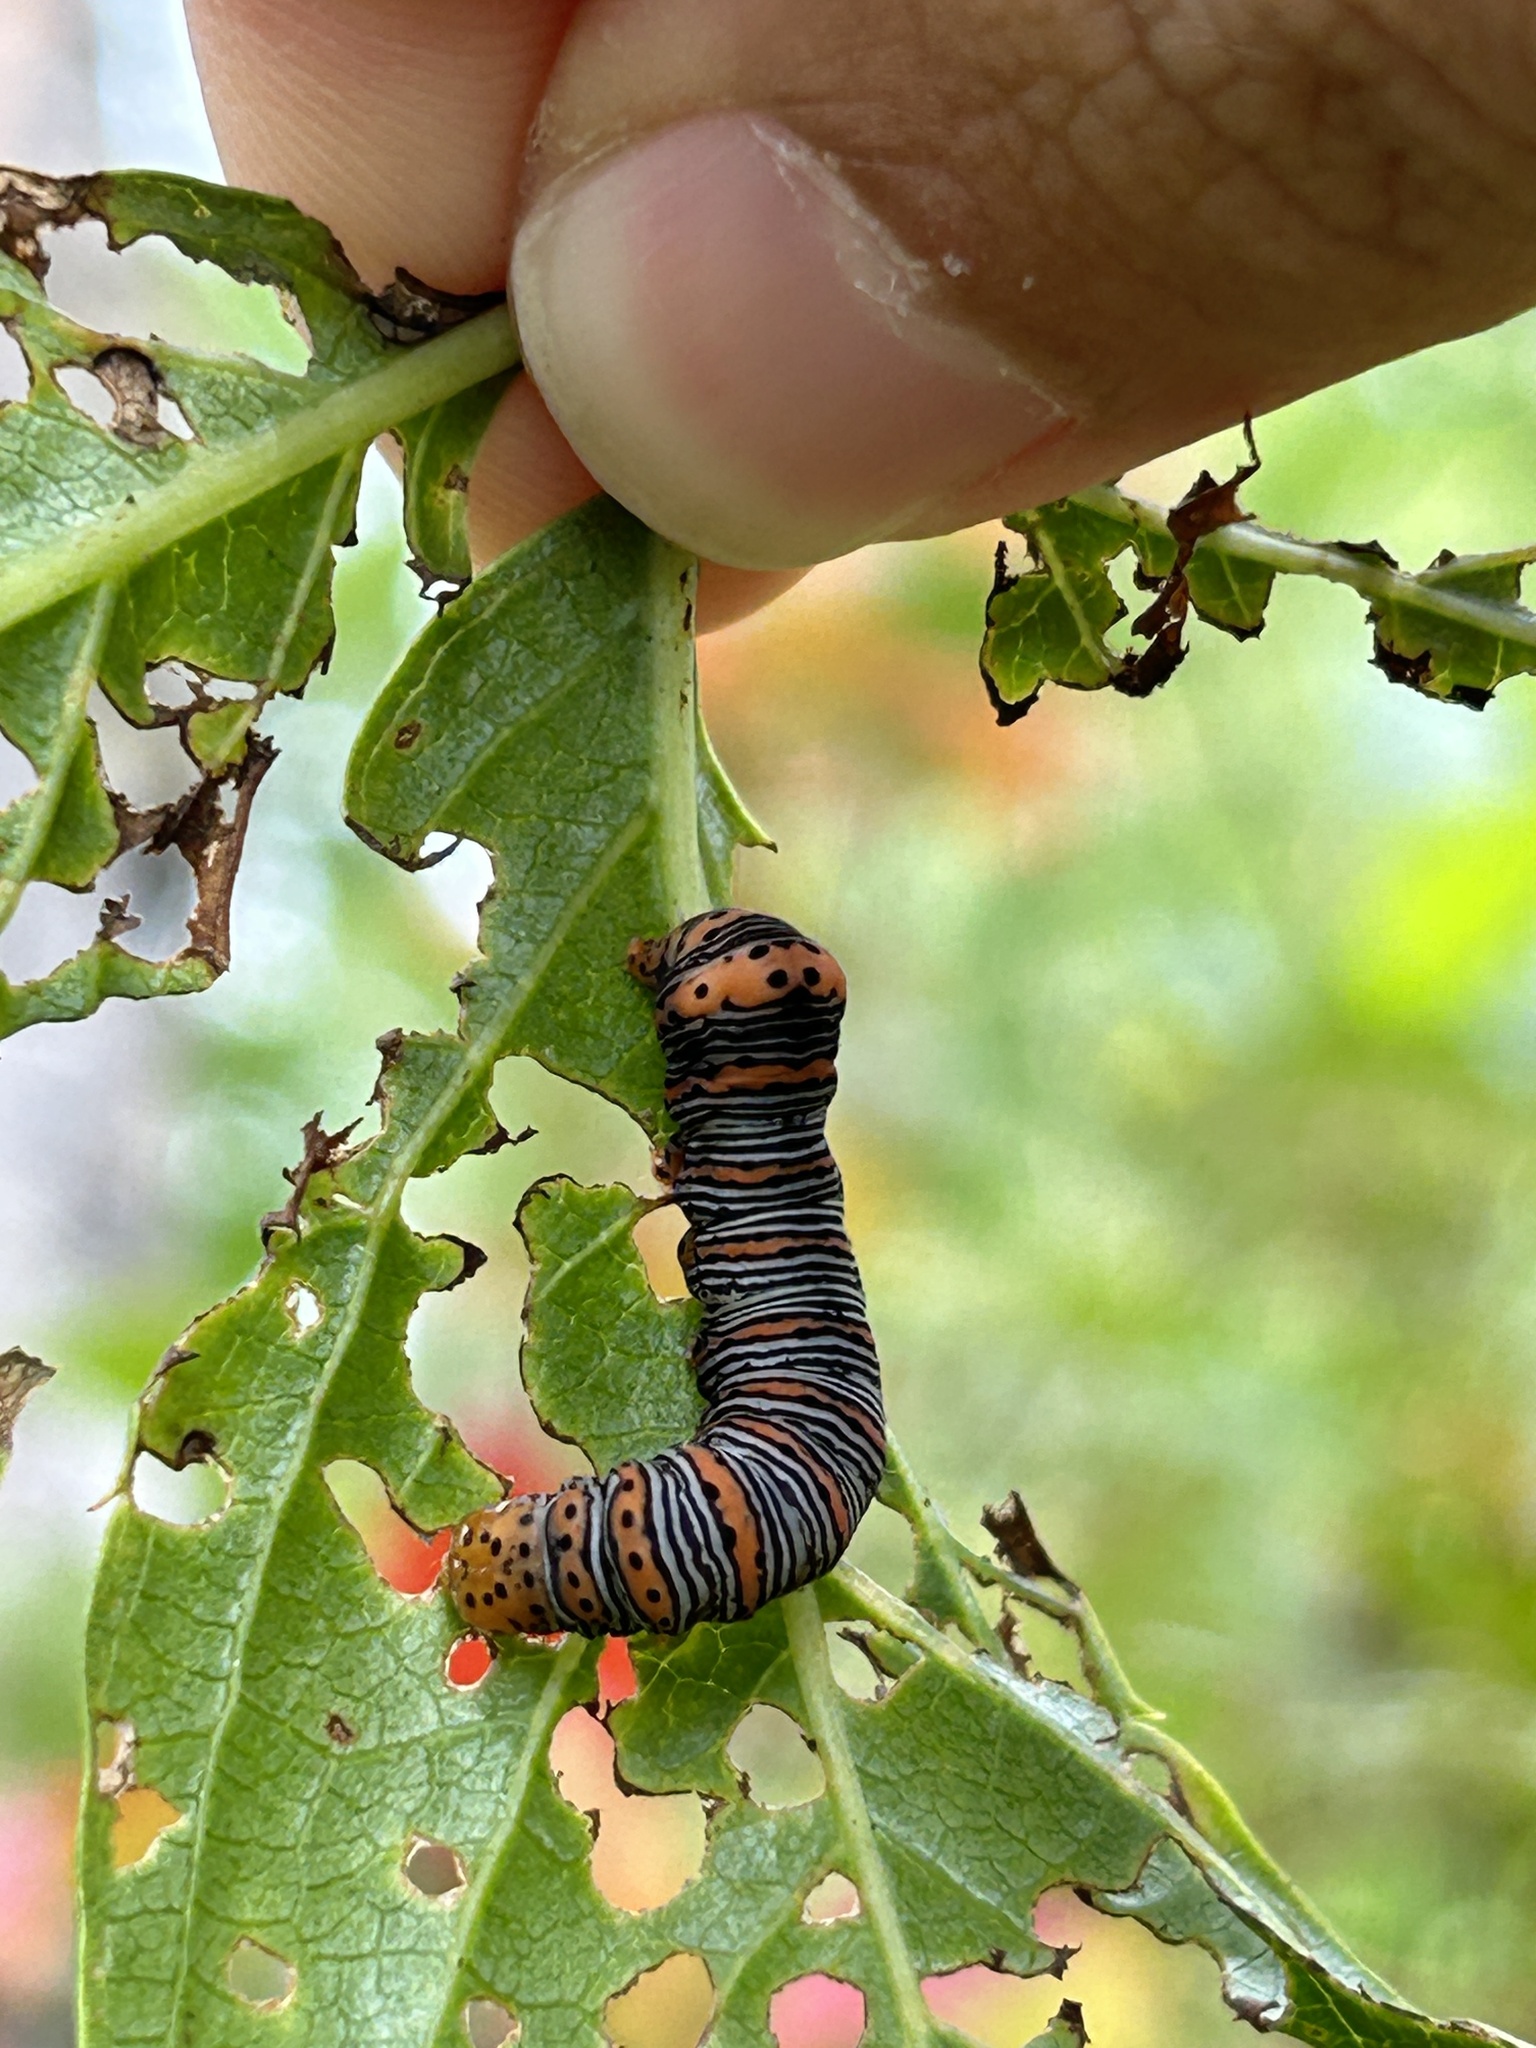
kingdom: Animalia
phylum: Arthropoda
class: Insecta
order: Lepidoptera
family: Noctuidae
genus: Eudryas
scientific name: Eudryas grata
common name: Beautiful wood-nymph
